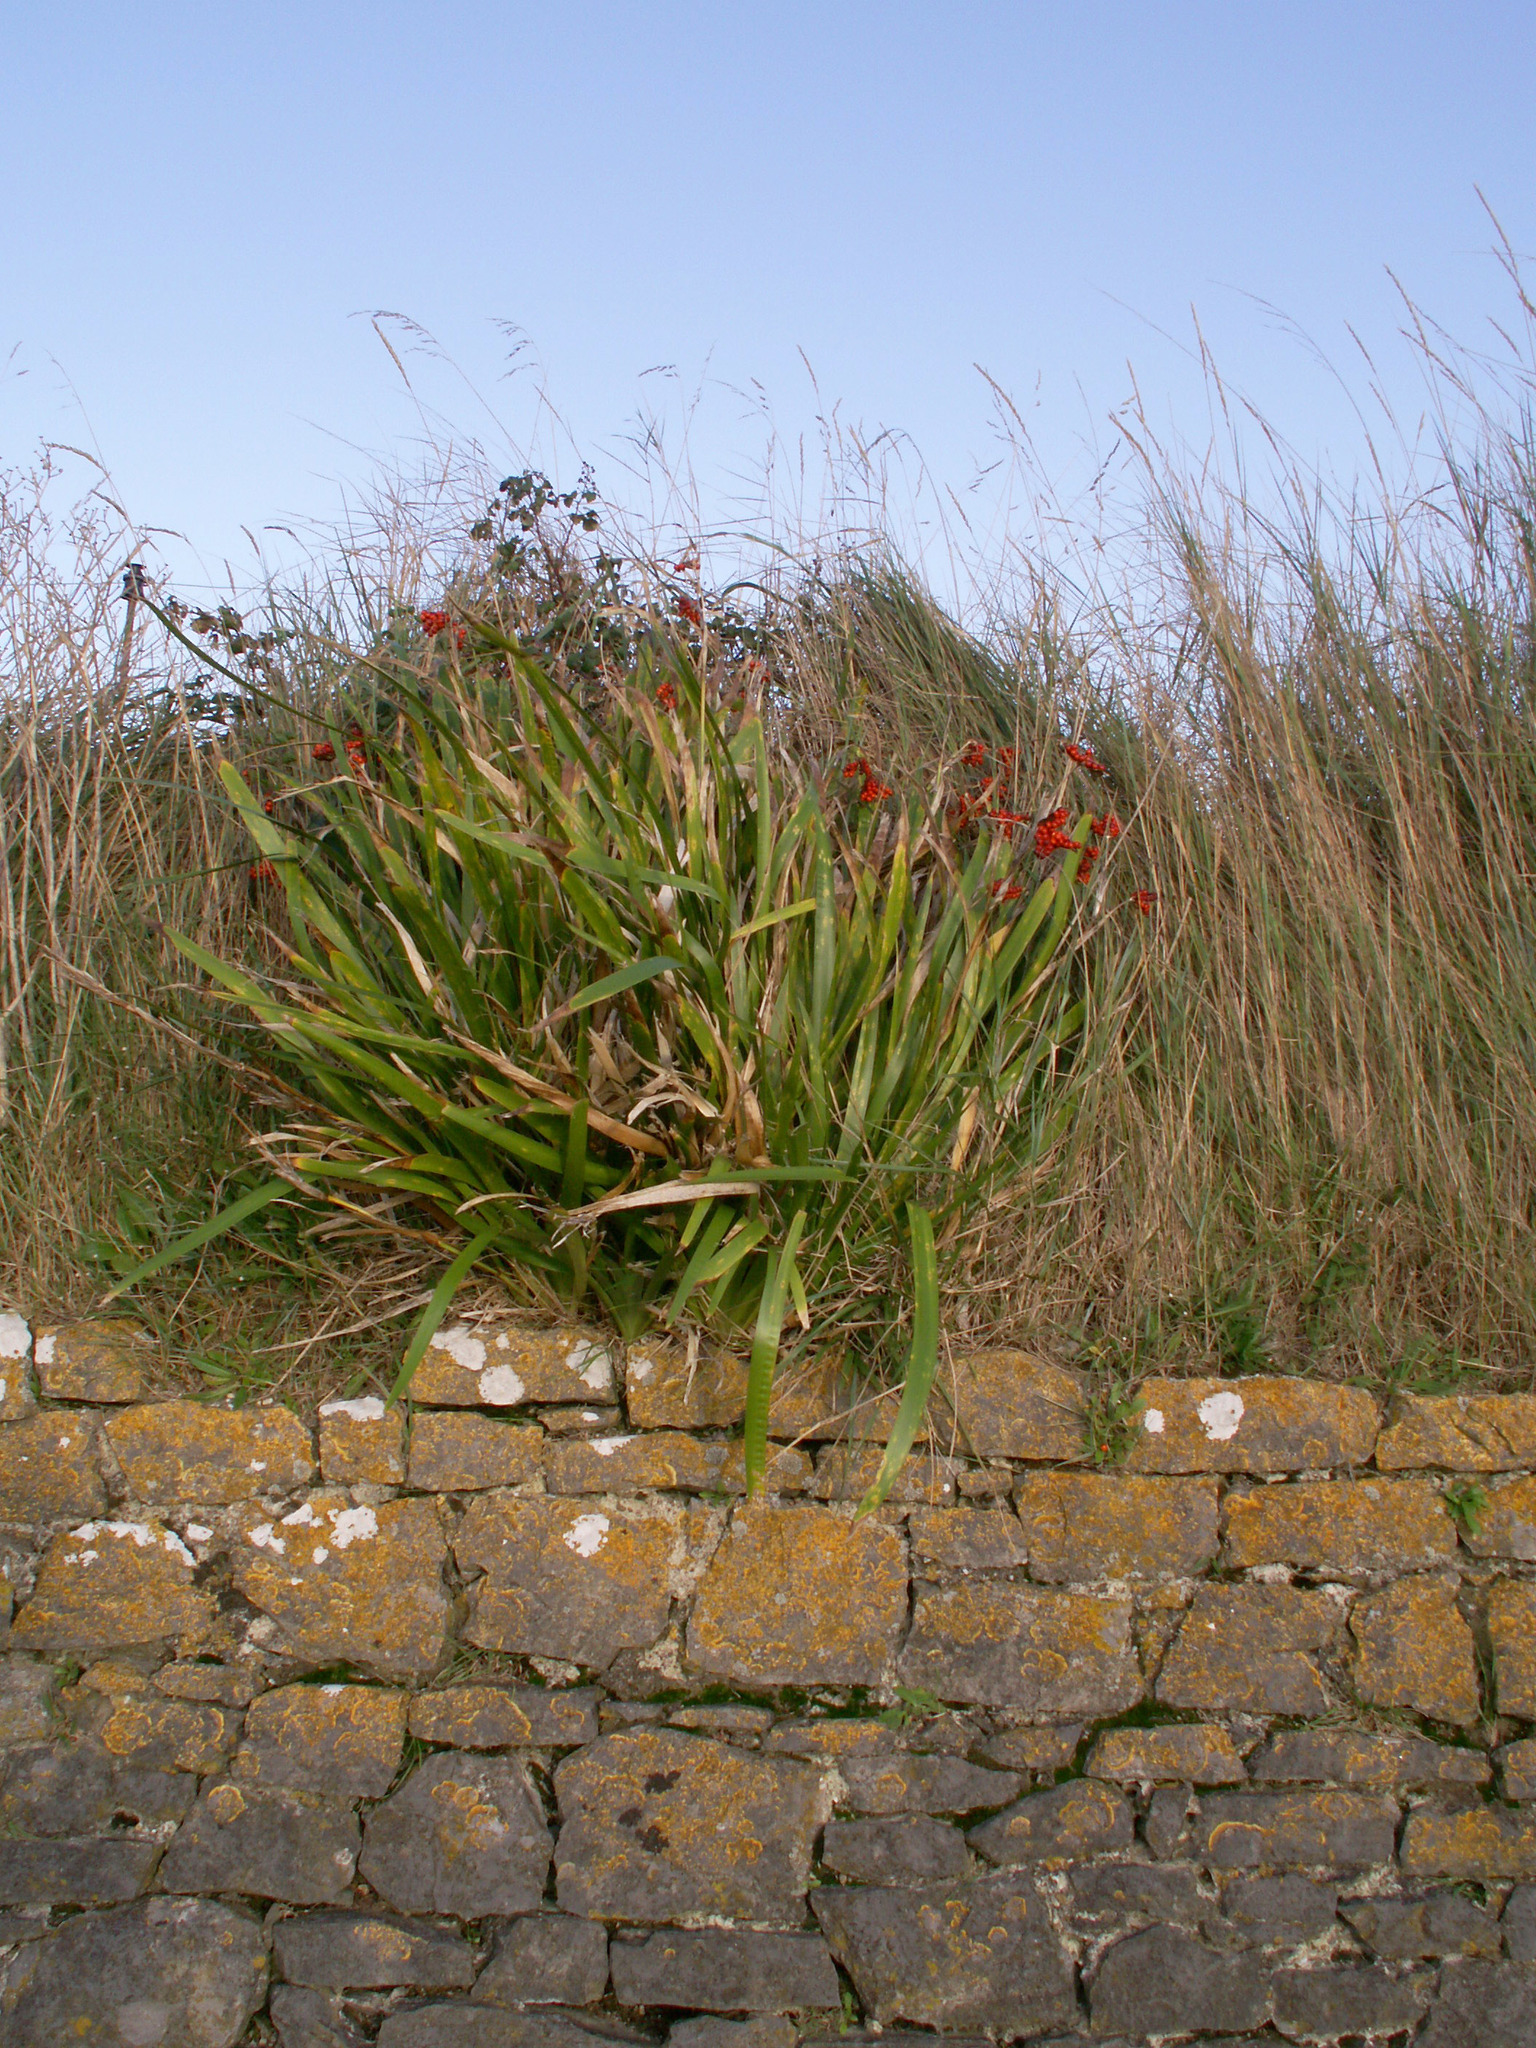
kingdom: Plantae
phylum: Tracheophyta
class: Liliopsida
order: Asparagales
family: Iridaceae
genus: Iris
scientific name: Iris foetidissima
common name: Stinking iris
